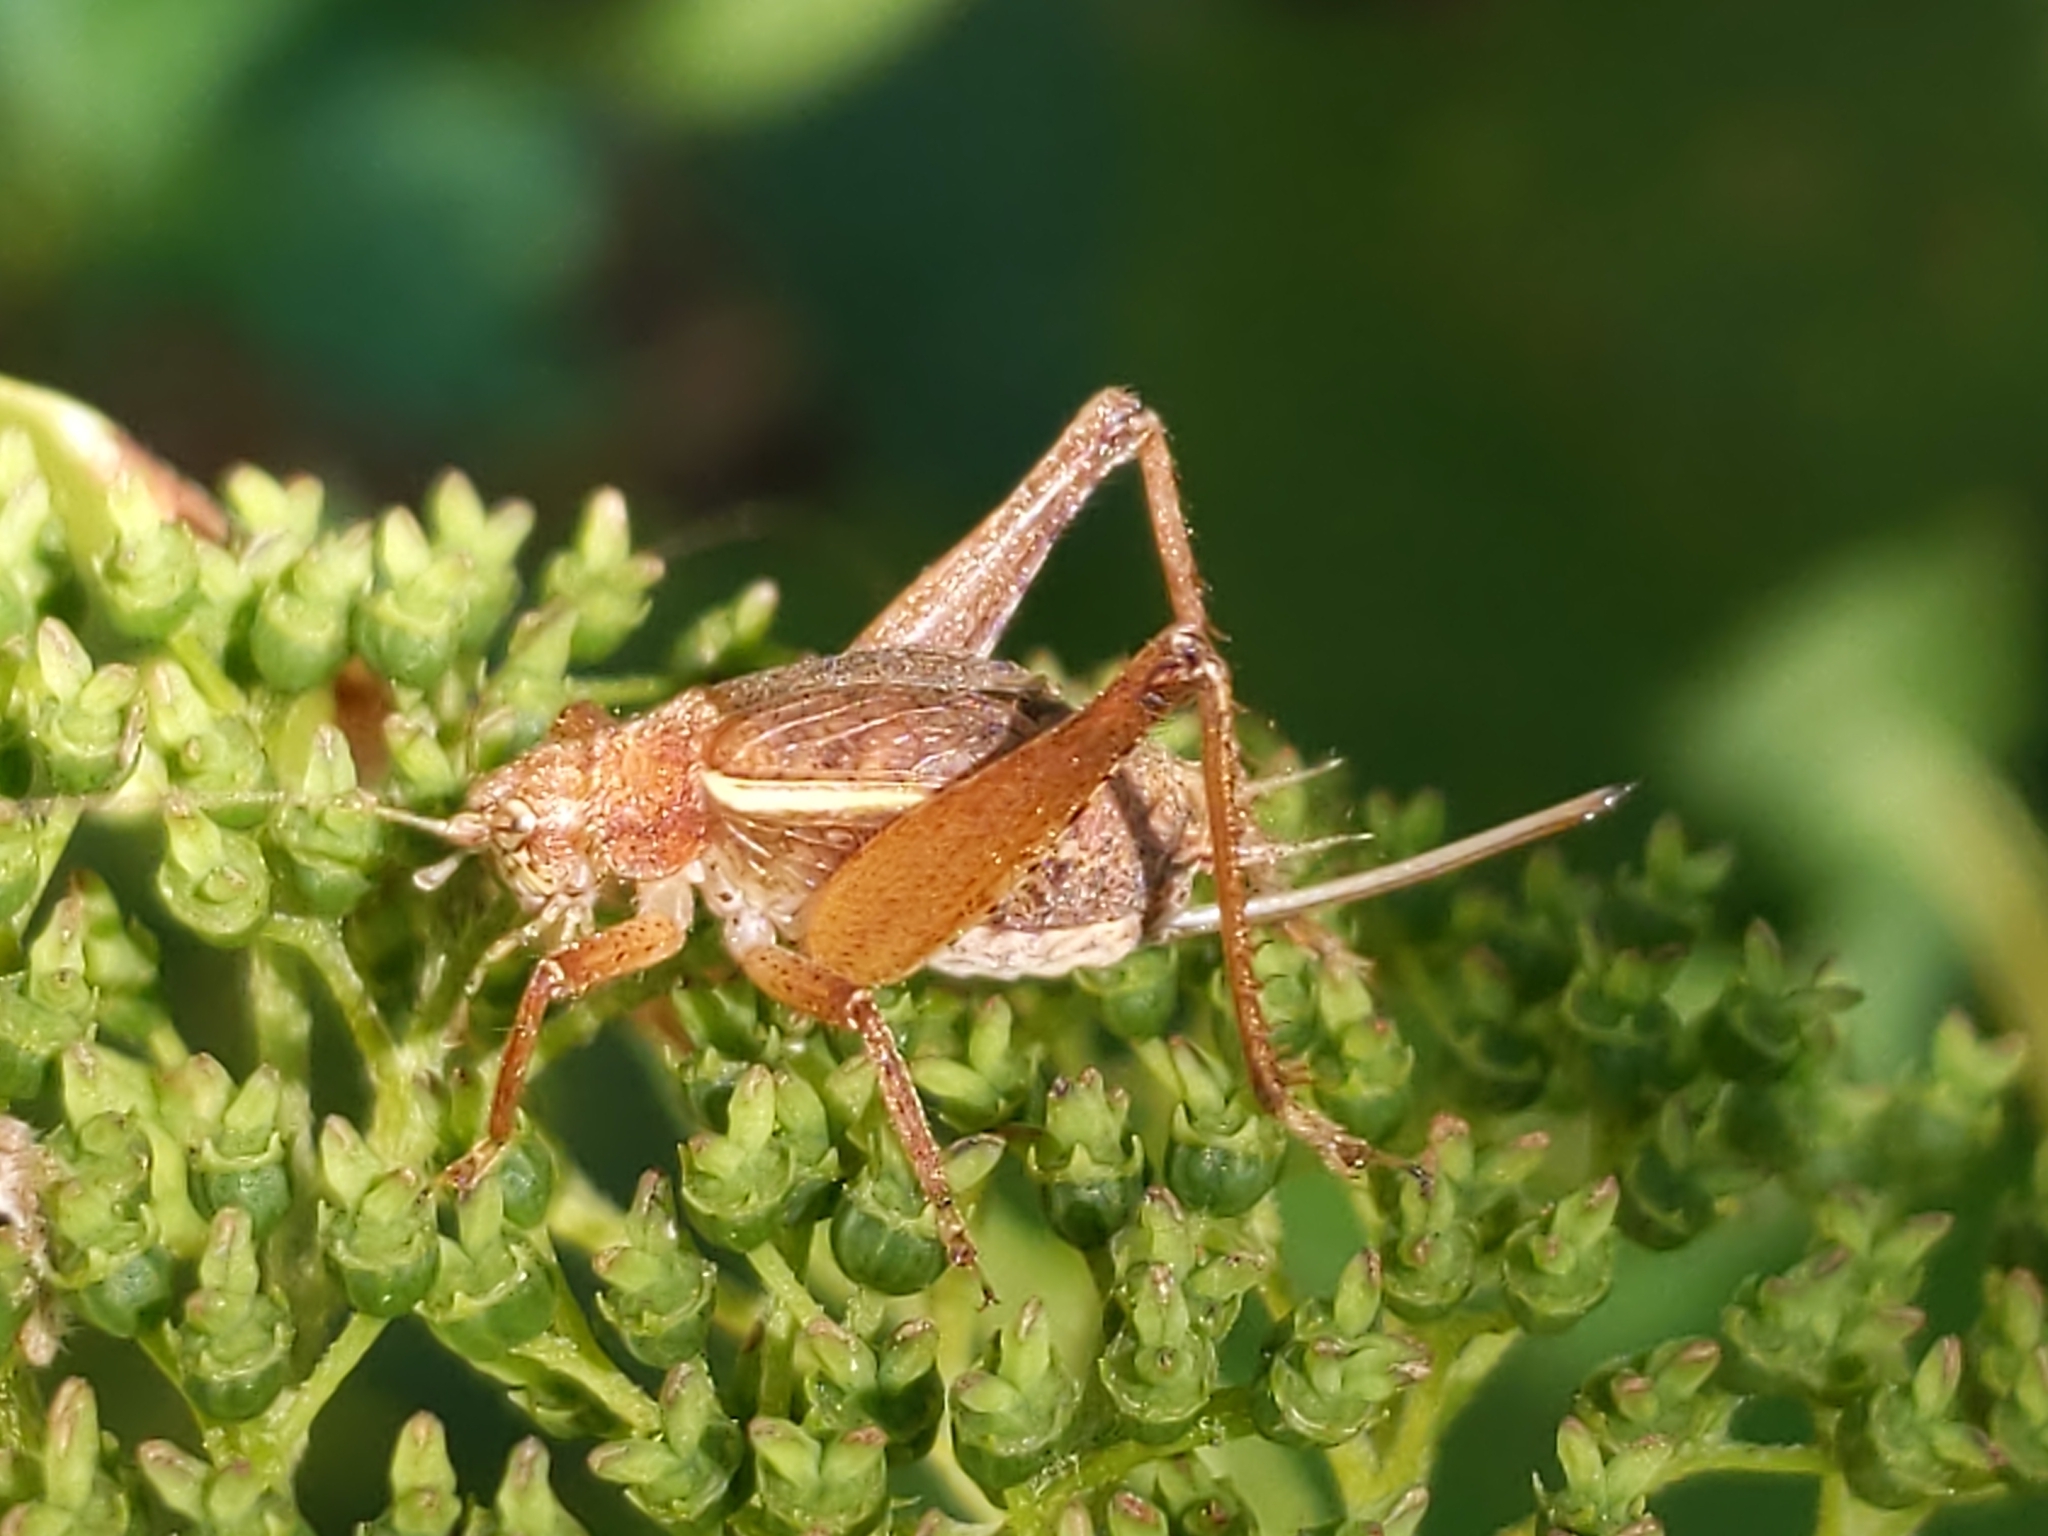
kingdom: Animalia
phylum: Arthropoda
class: Insecta
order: Orthoptera
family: Gryllidae
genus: Hapithus
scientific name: Hapithus agitator
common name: Restless bush cricket
